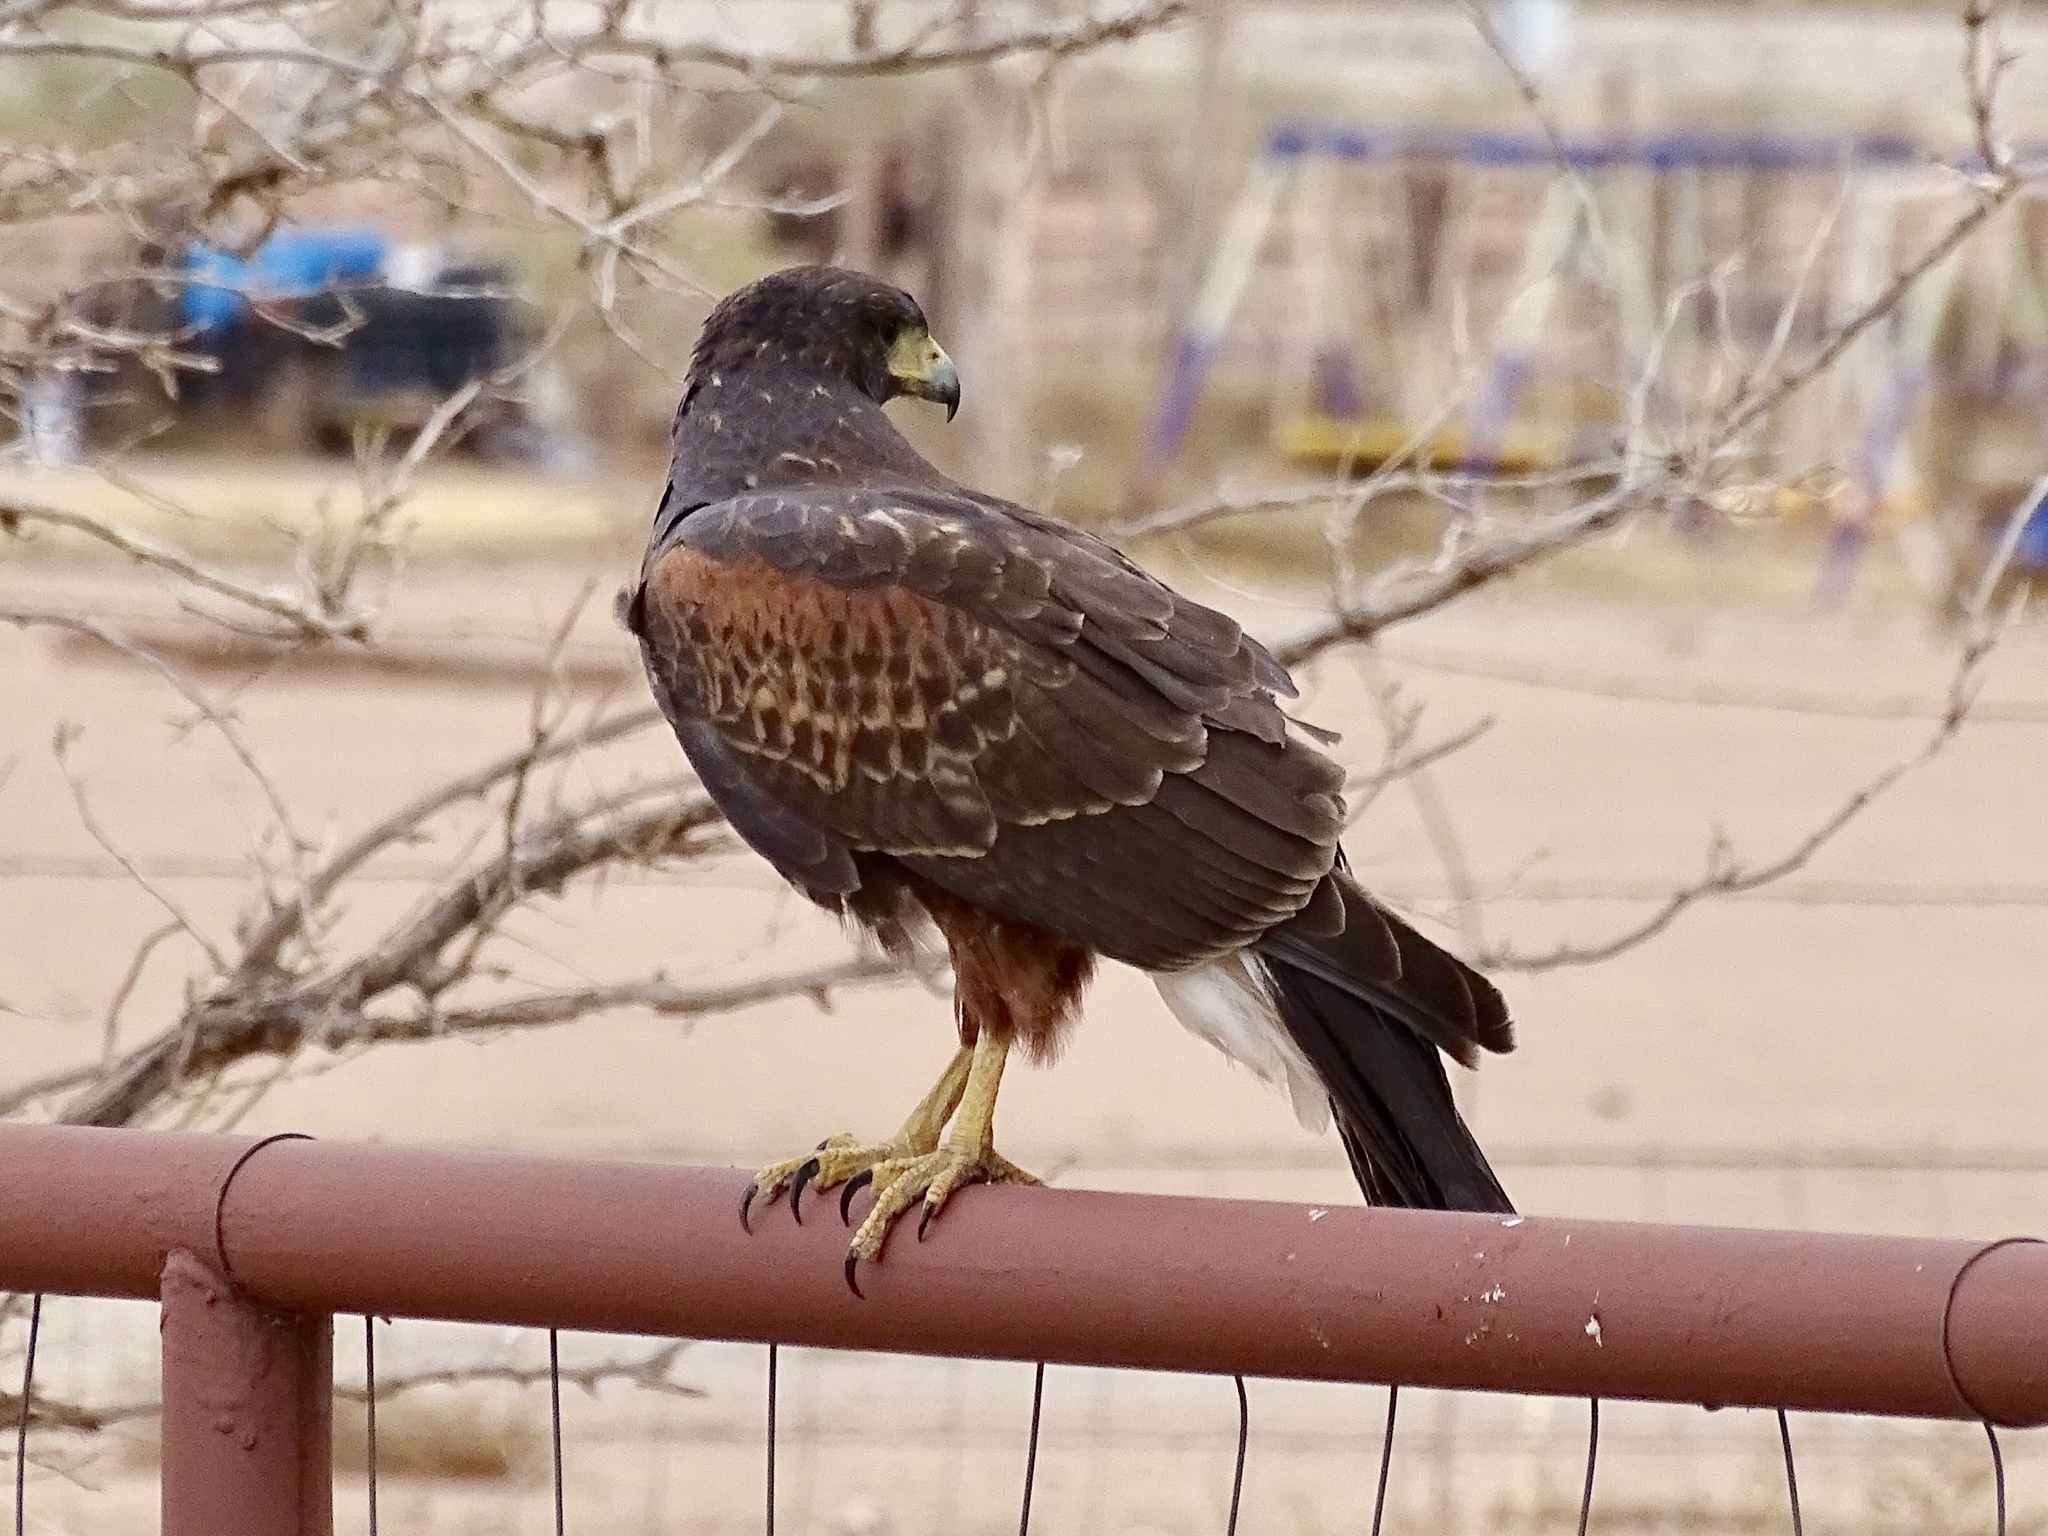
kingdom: Animalia
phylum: Chordata
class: Aves
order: Accipitriformes
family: Accipitridae
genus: Parabuteo
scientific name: Parabuteo unicinctus
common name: Harris's hawk
